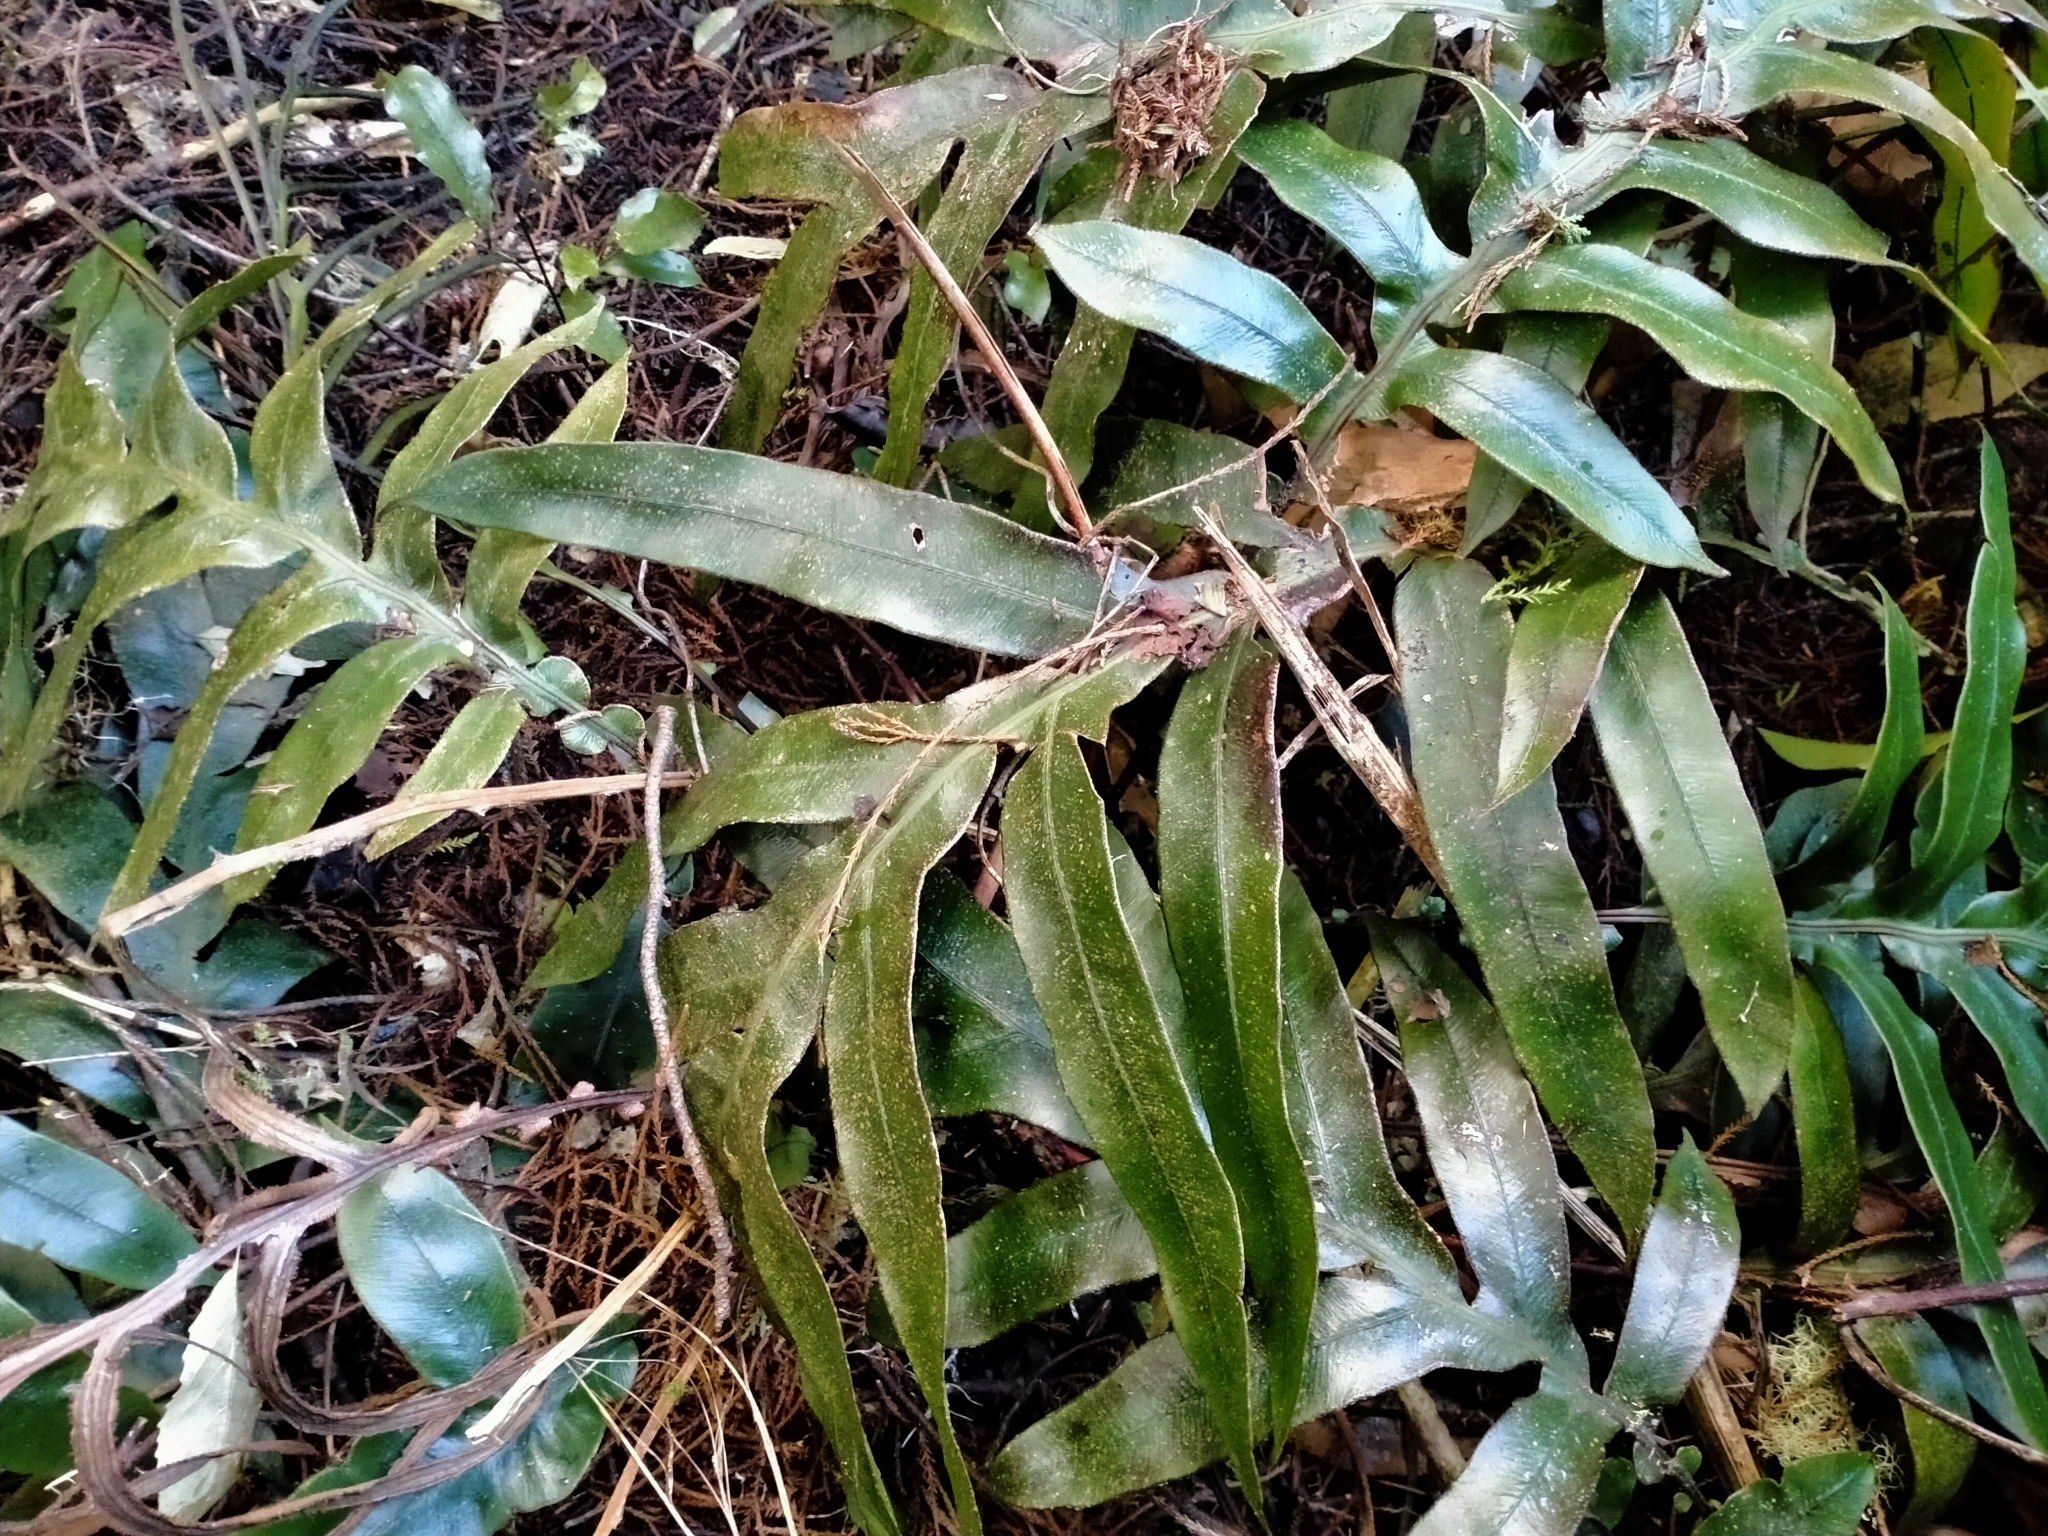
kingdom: Plantae
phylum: Tracheophyta
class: Polypodiopsida
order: Polypodiales
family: Blechnaceae
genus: Austroblechnum
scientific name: Austroblechnum colensoi
